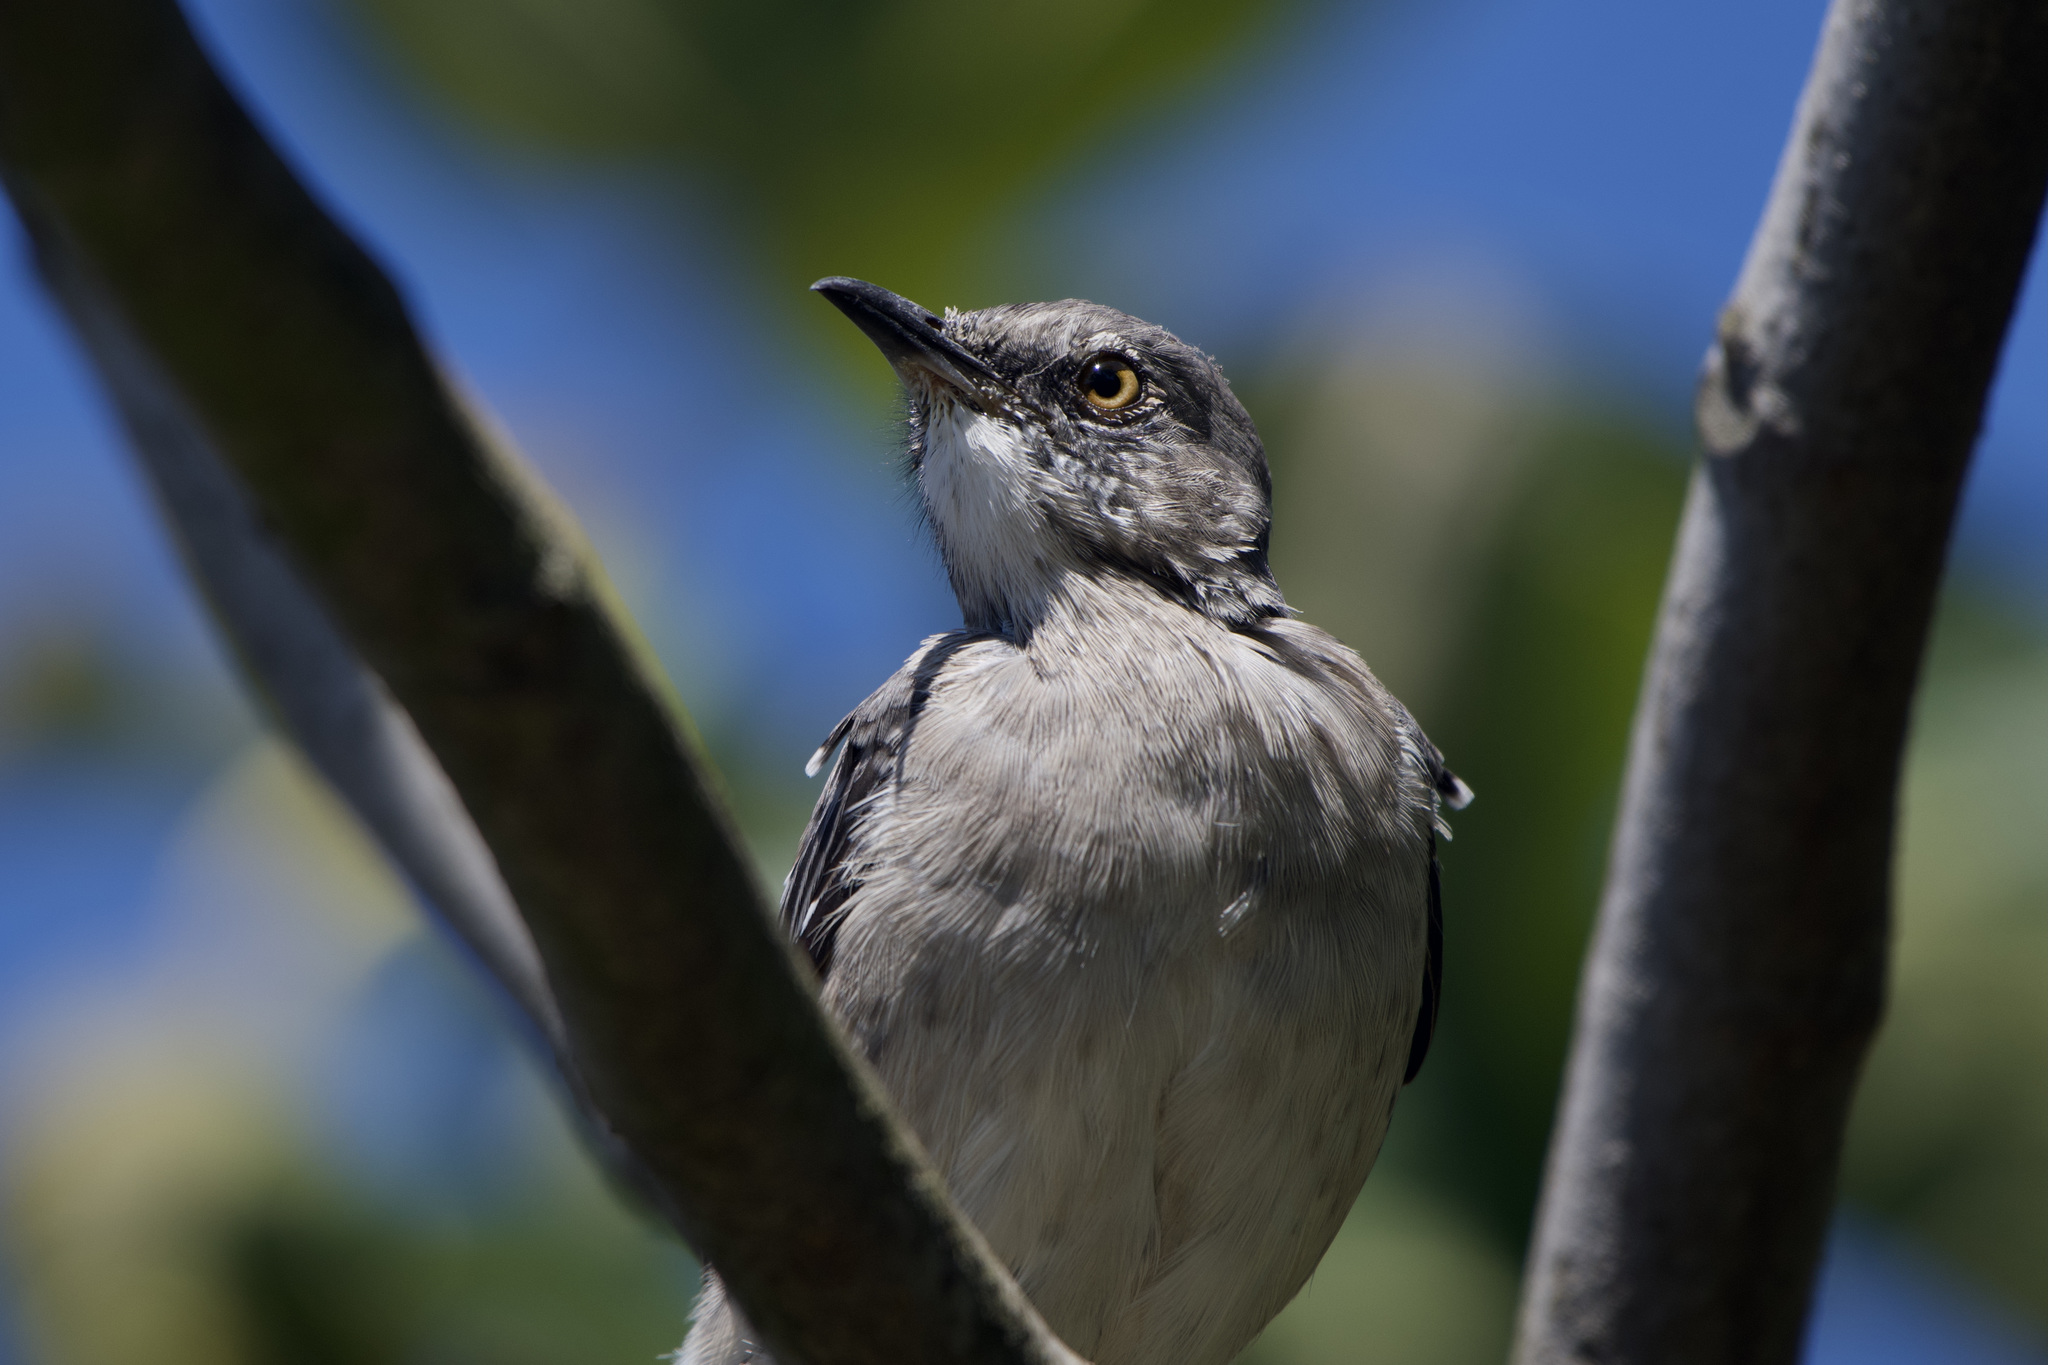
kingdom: Animalia
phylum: Chordata
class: Aves
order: Passeriformes
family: Mimidae
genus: Mimus
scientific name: Mimus polyglottos
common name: Northern mockingbird
